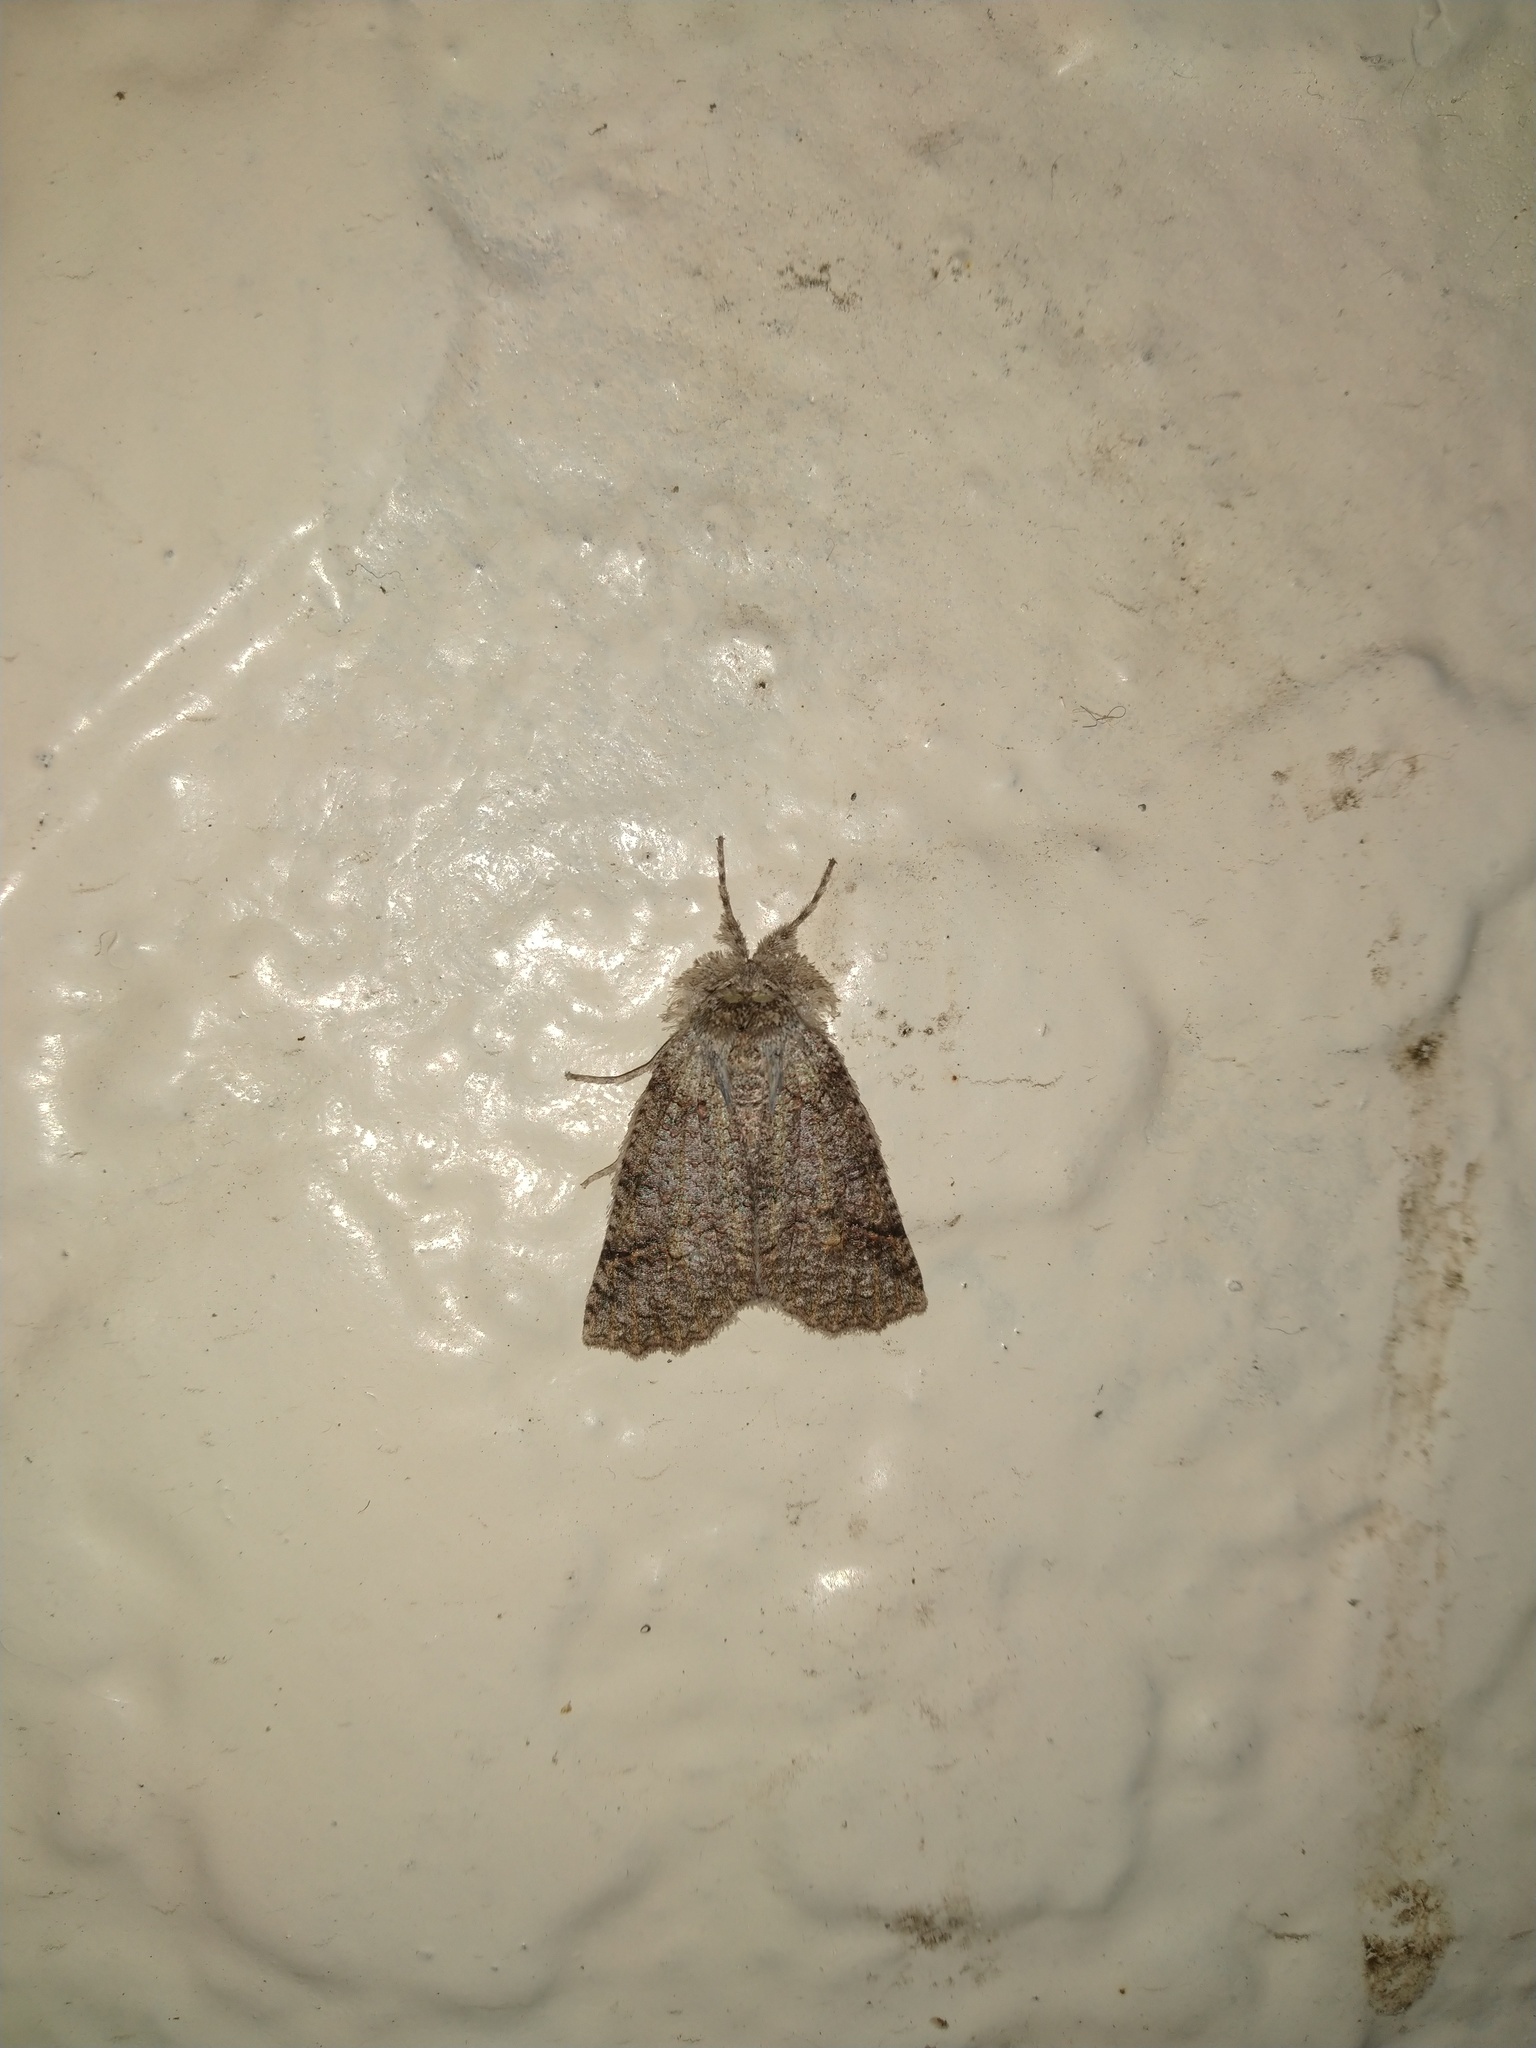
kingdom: Animalia
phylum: Arthropoda
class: Insecta
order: Lepidoptera
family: Geometridae
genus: Declana
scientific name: Declana floccosa
